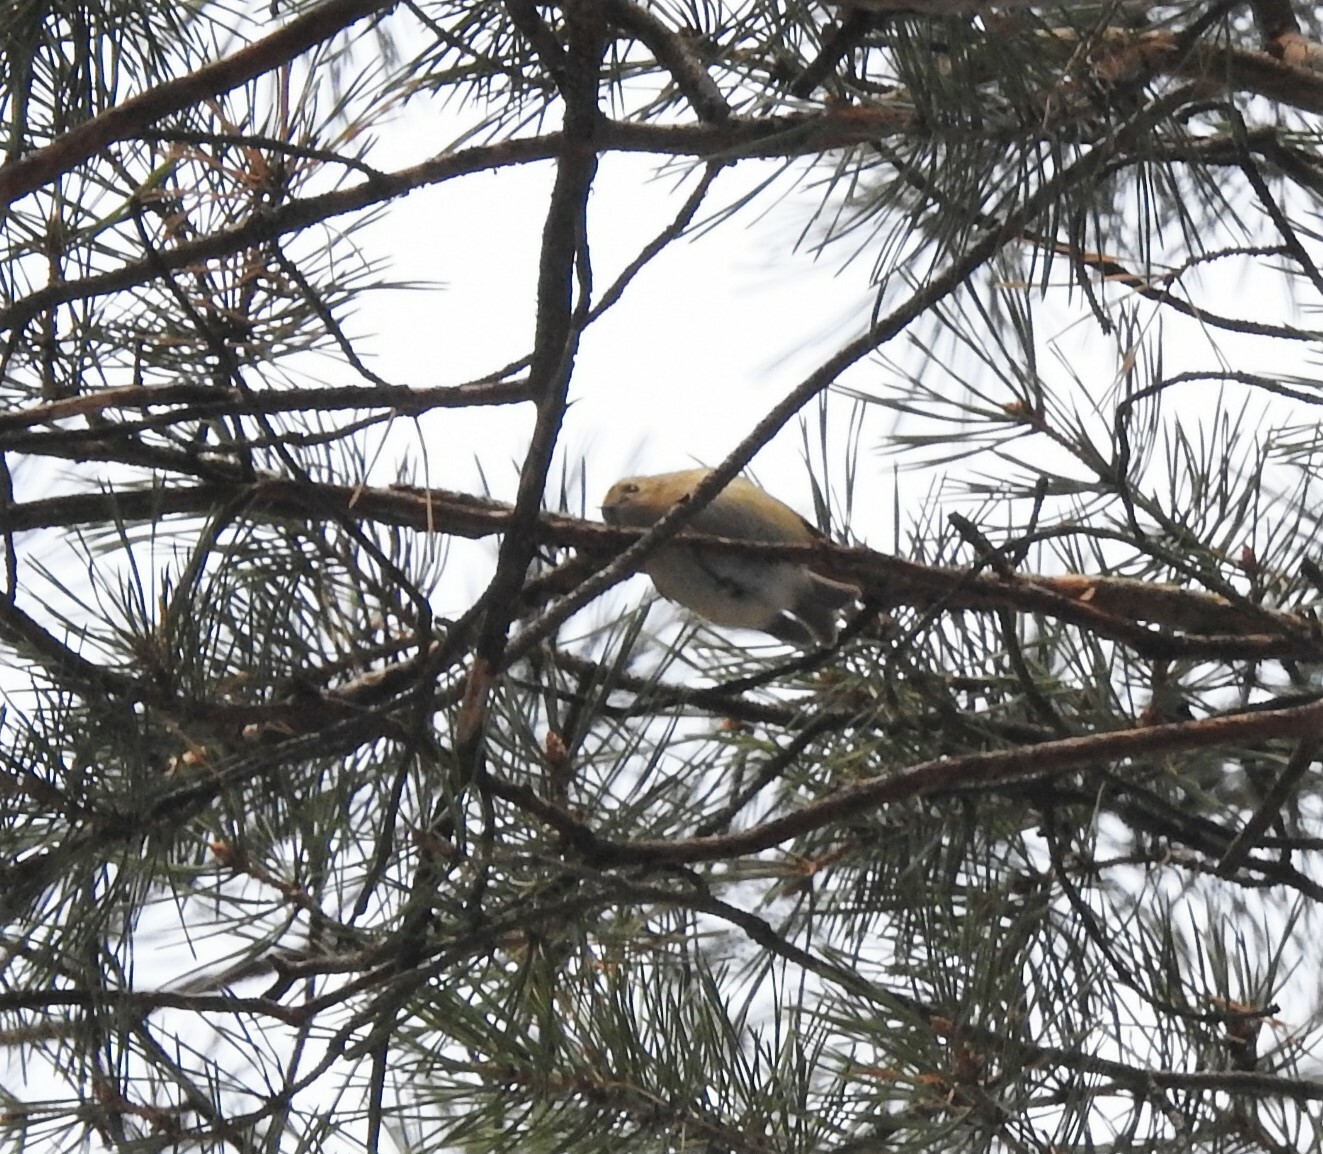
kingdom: Animalia
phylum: Chordata
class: Aves
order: Passeriformes
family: Regulidae
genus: Regulus
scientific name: Regulus regulus
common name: Goldcrest
